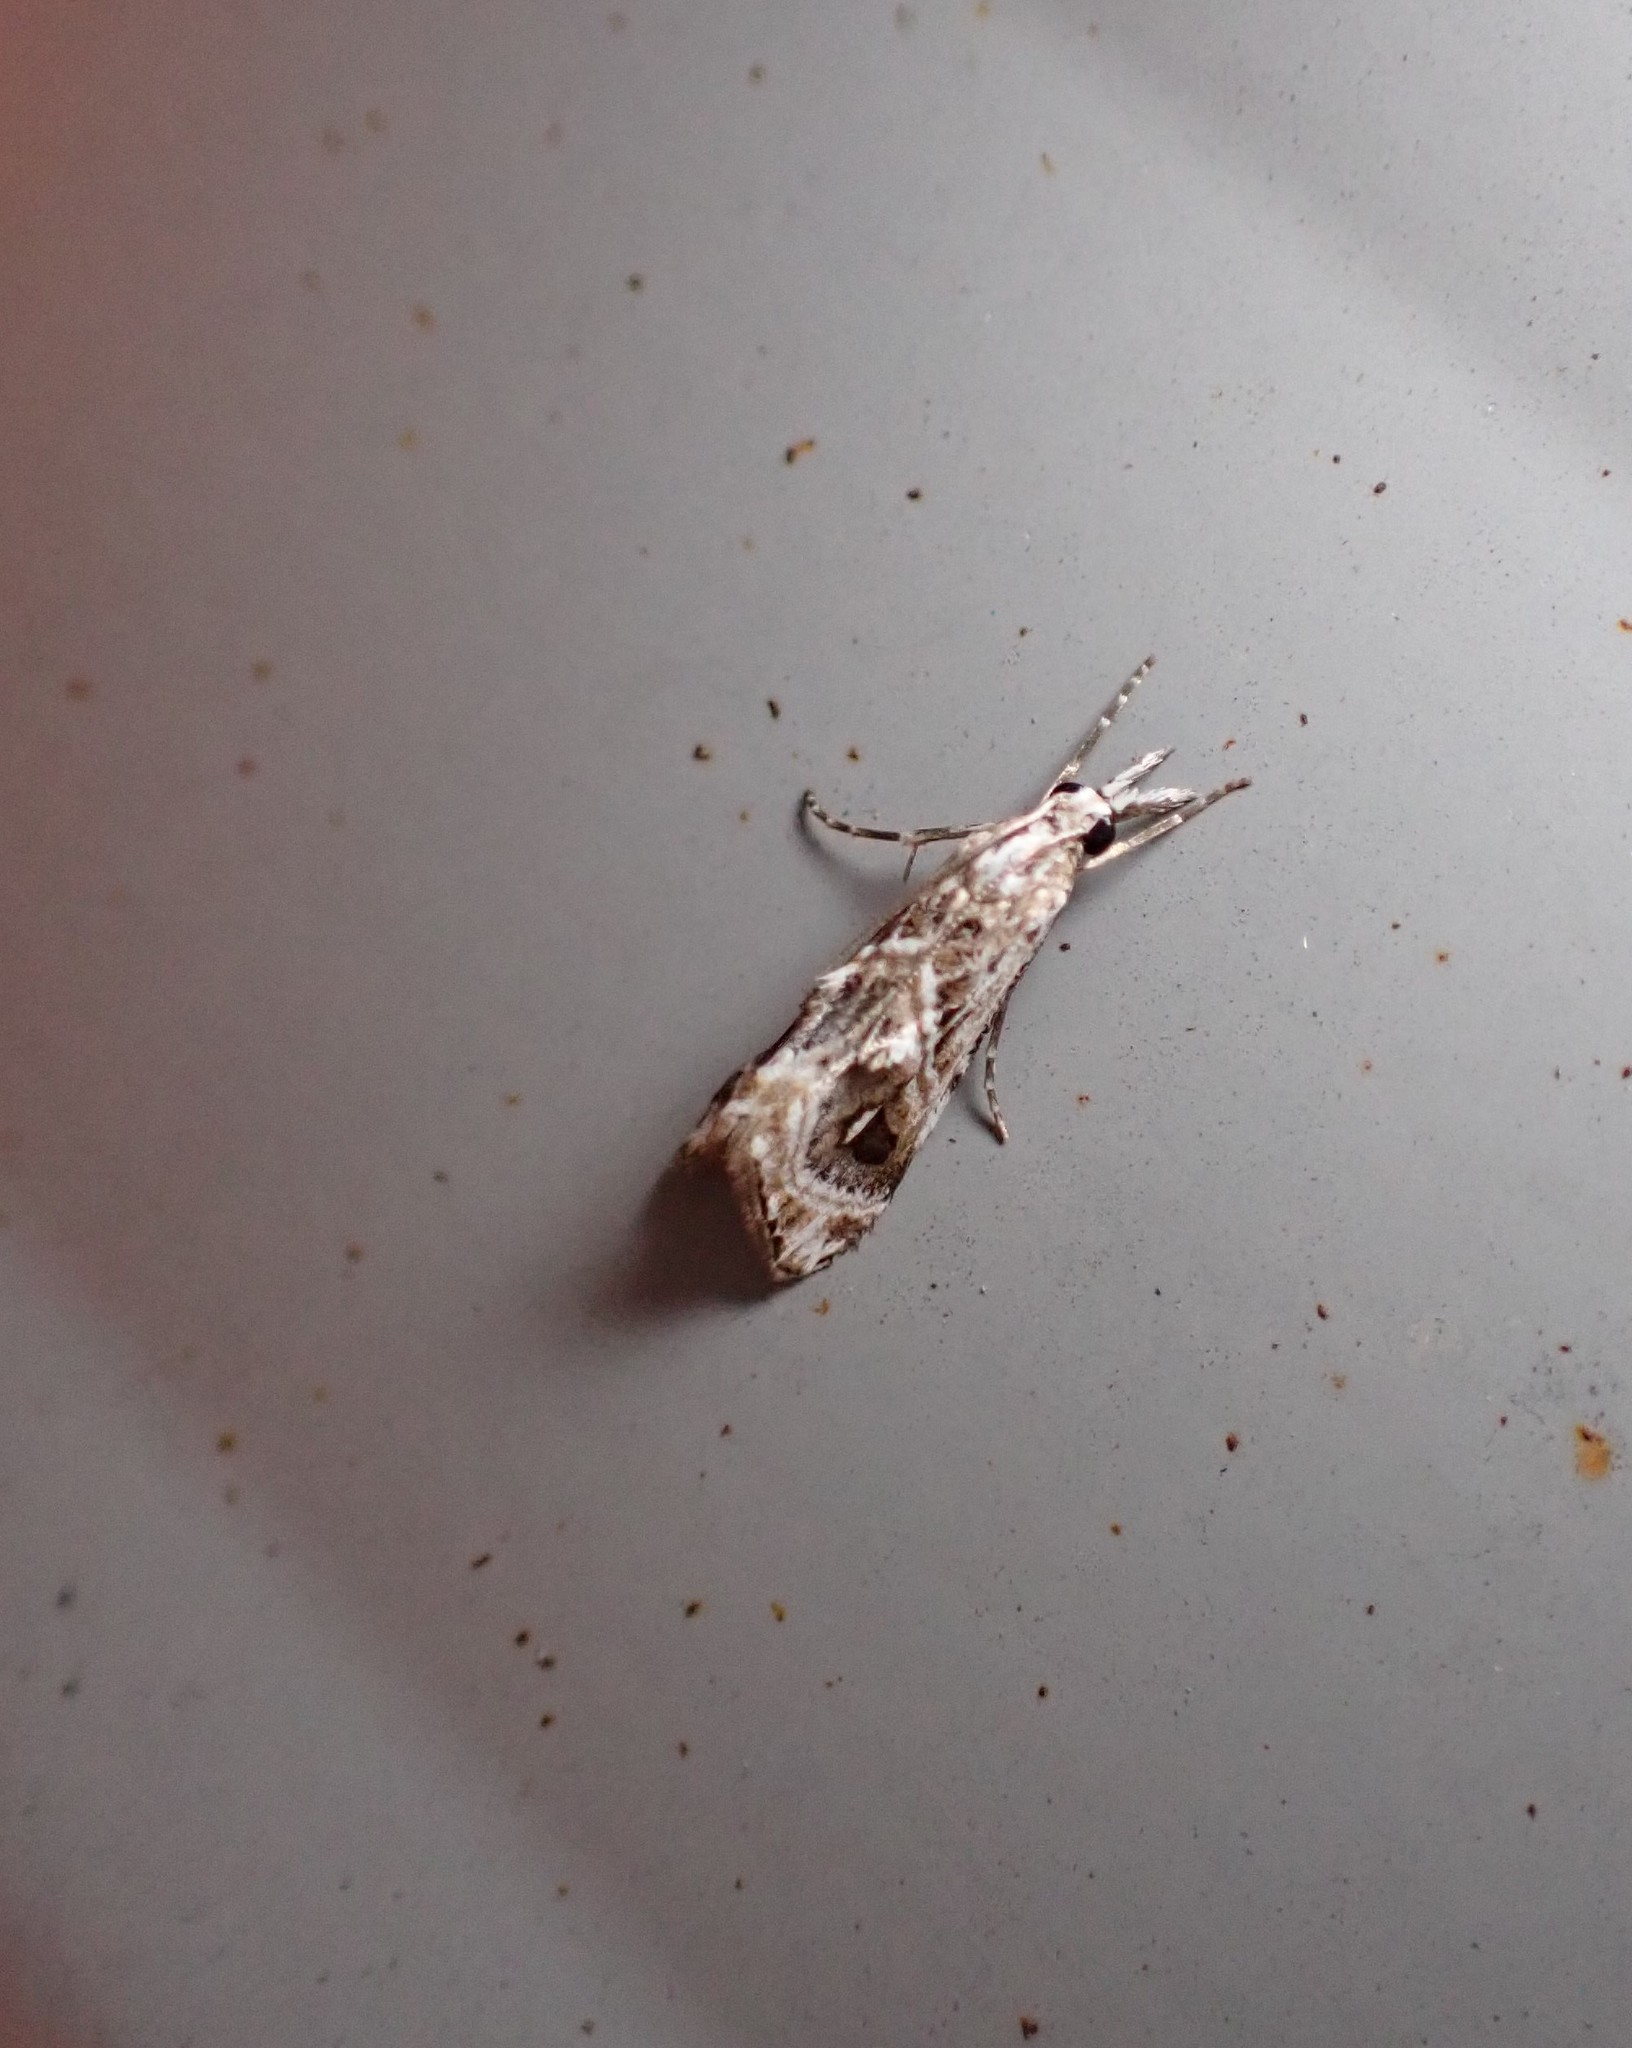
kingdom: Animalia
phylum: Arthropoda
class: Insecta
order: Lepidoptera
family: Crambidae
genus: Gadira
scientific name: Gadira acerella
